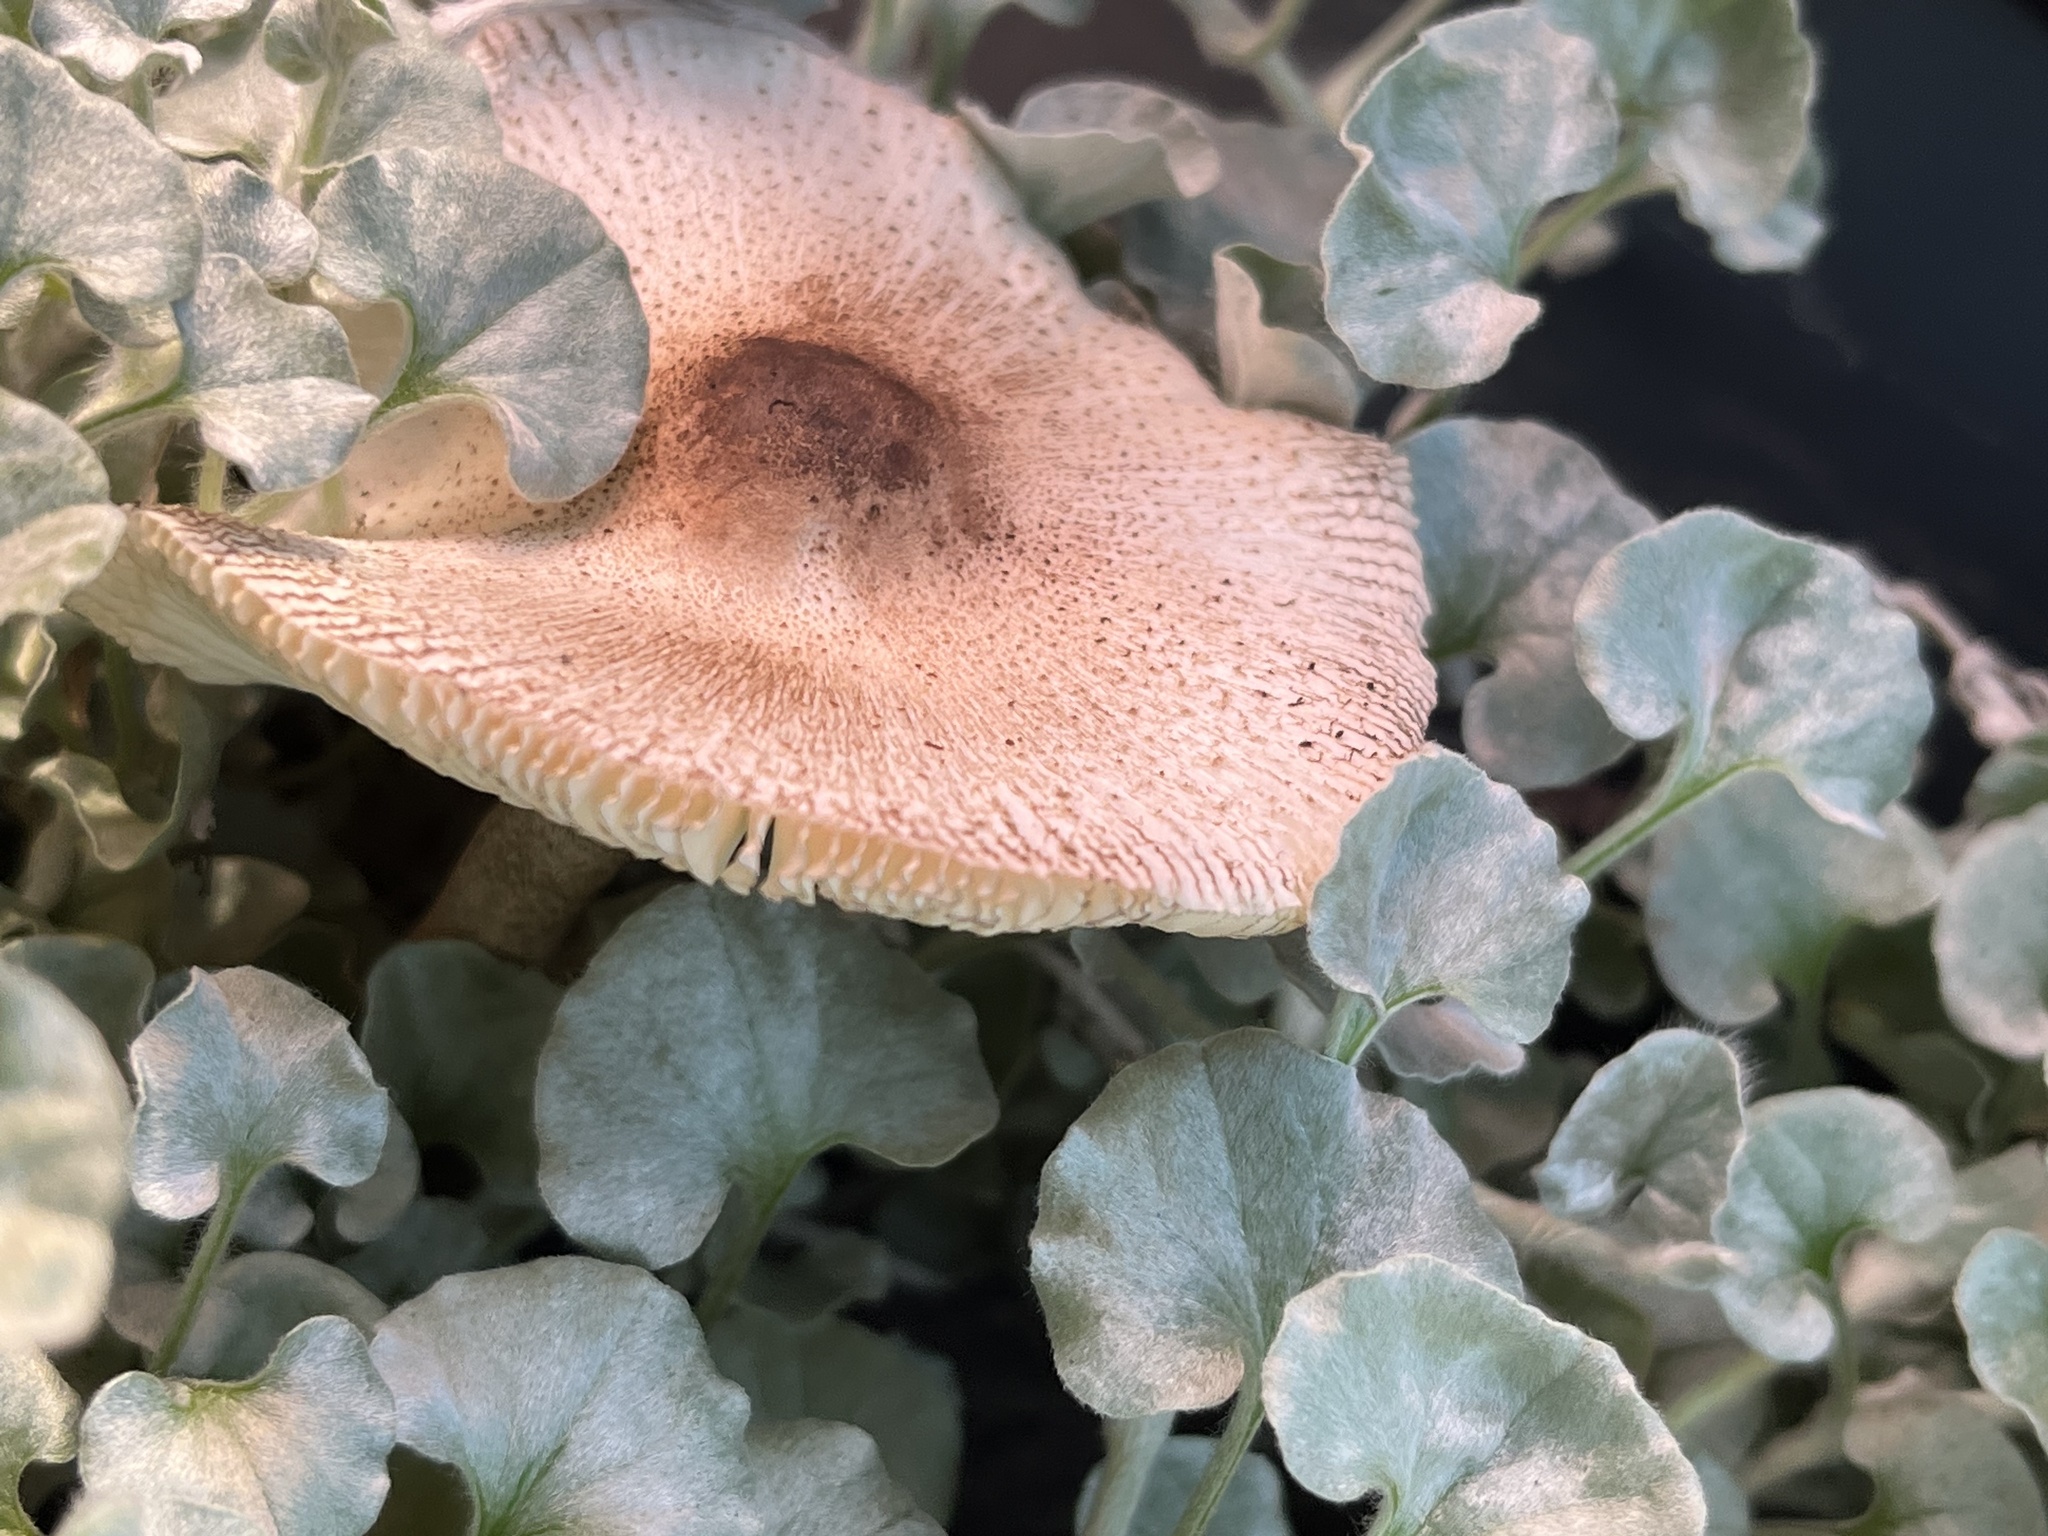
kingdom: Plantae
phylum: Tracheophyta
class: Magnoliopsida
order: Solanales
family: Convolvulaceae
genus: Dichondra
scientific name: Dichondra argentea
